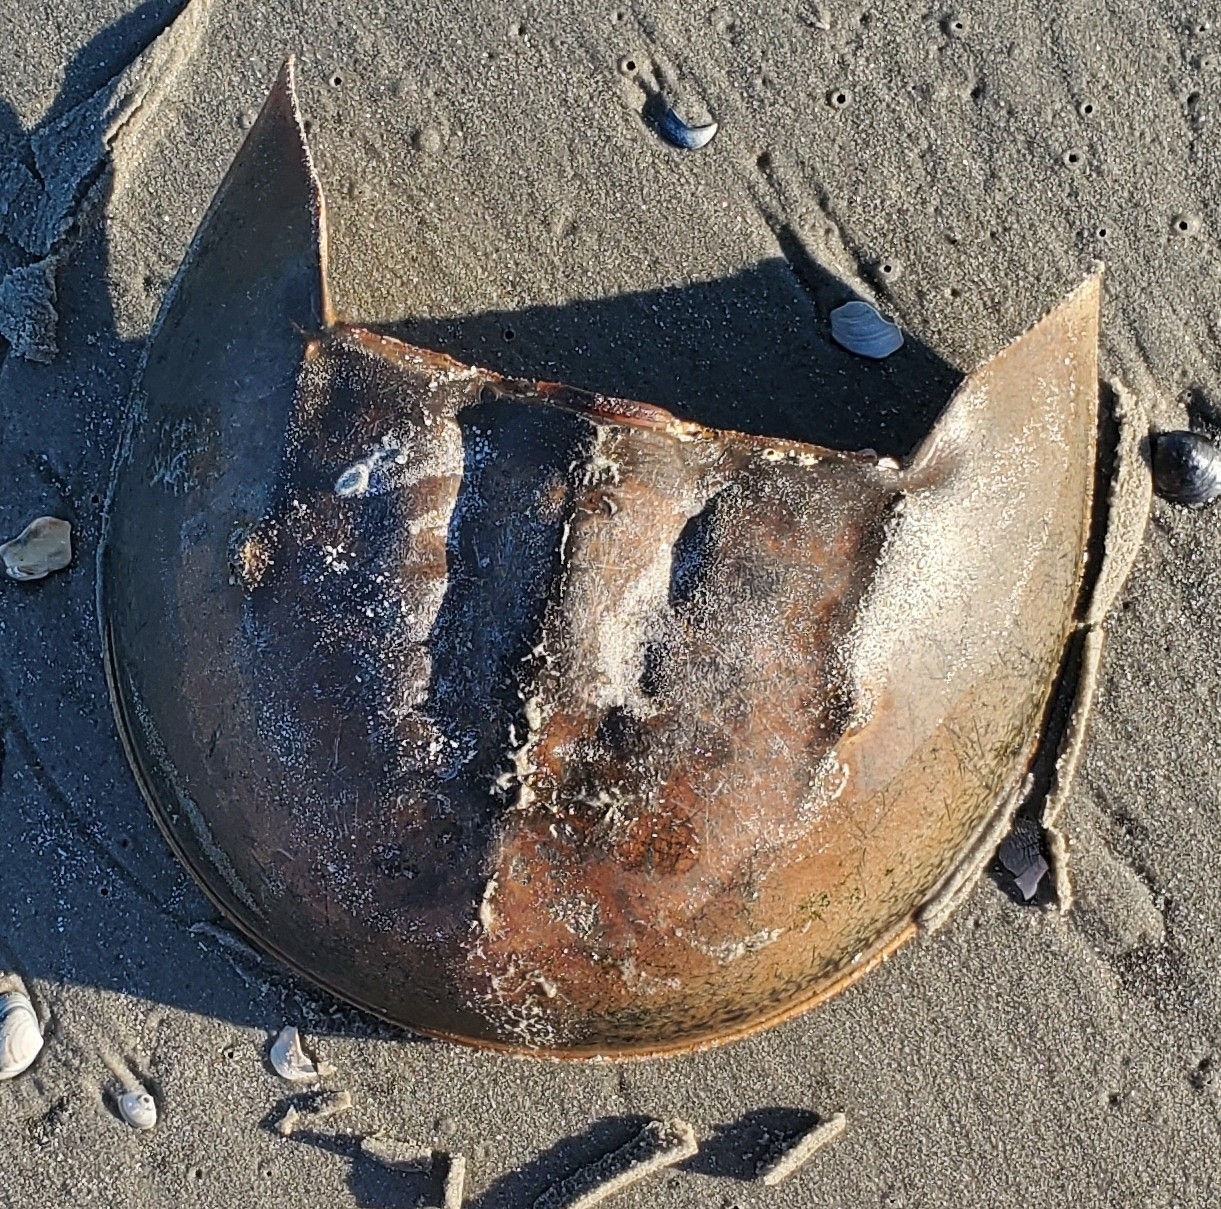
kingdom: Animalia
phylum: Arthropoda
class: Merostomata
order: Xiphosurida
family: Limulidae
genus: Limulus
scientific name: Limulus polyphemus
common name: Horseshoe crab
